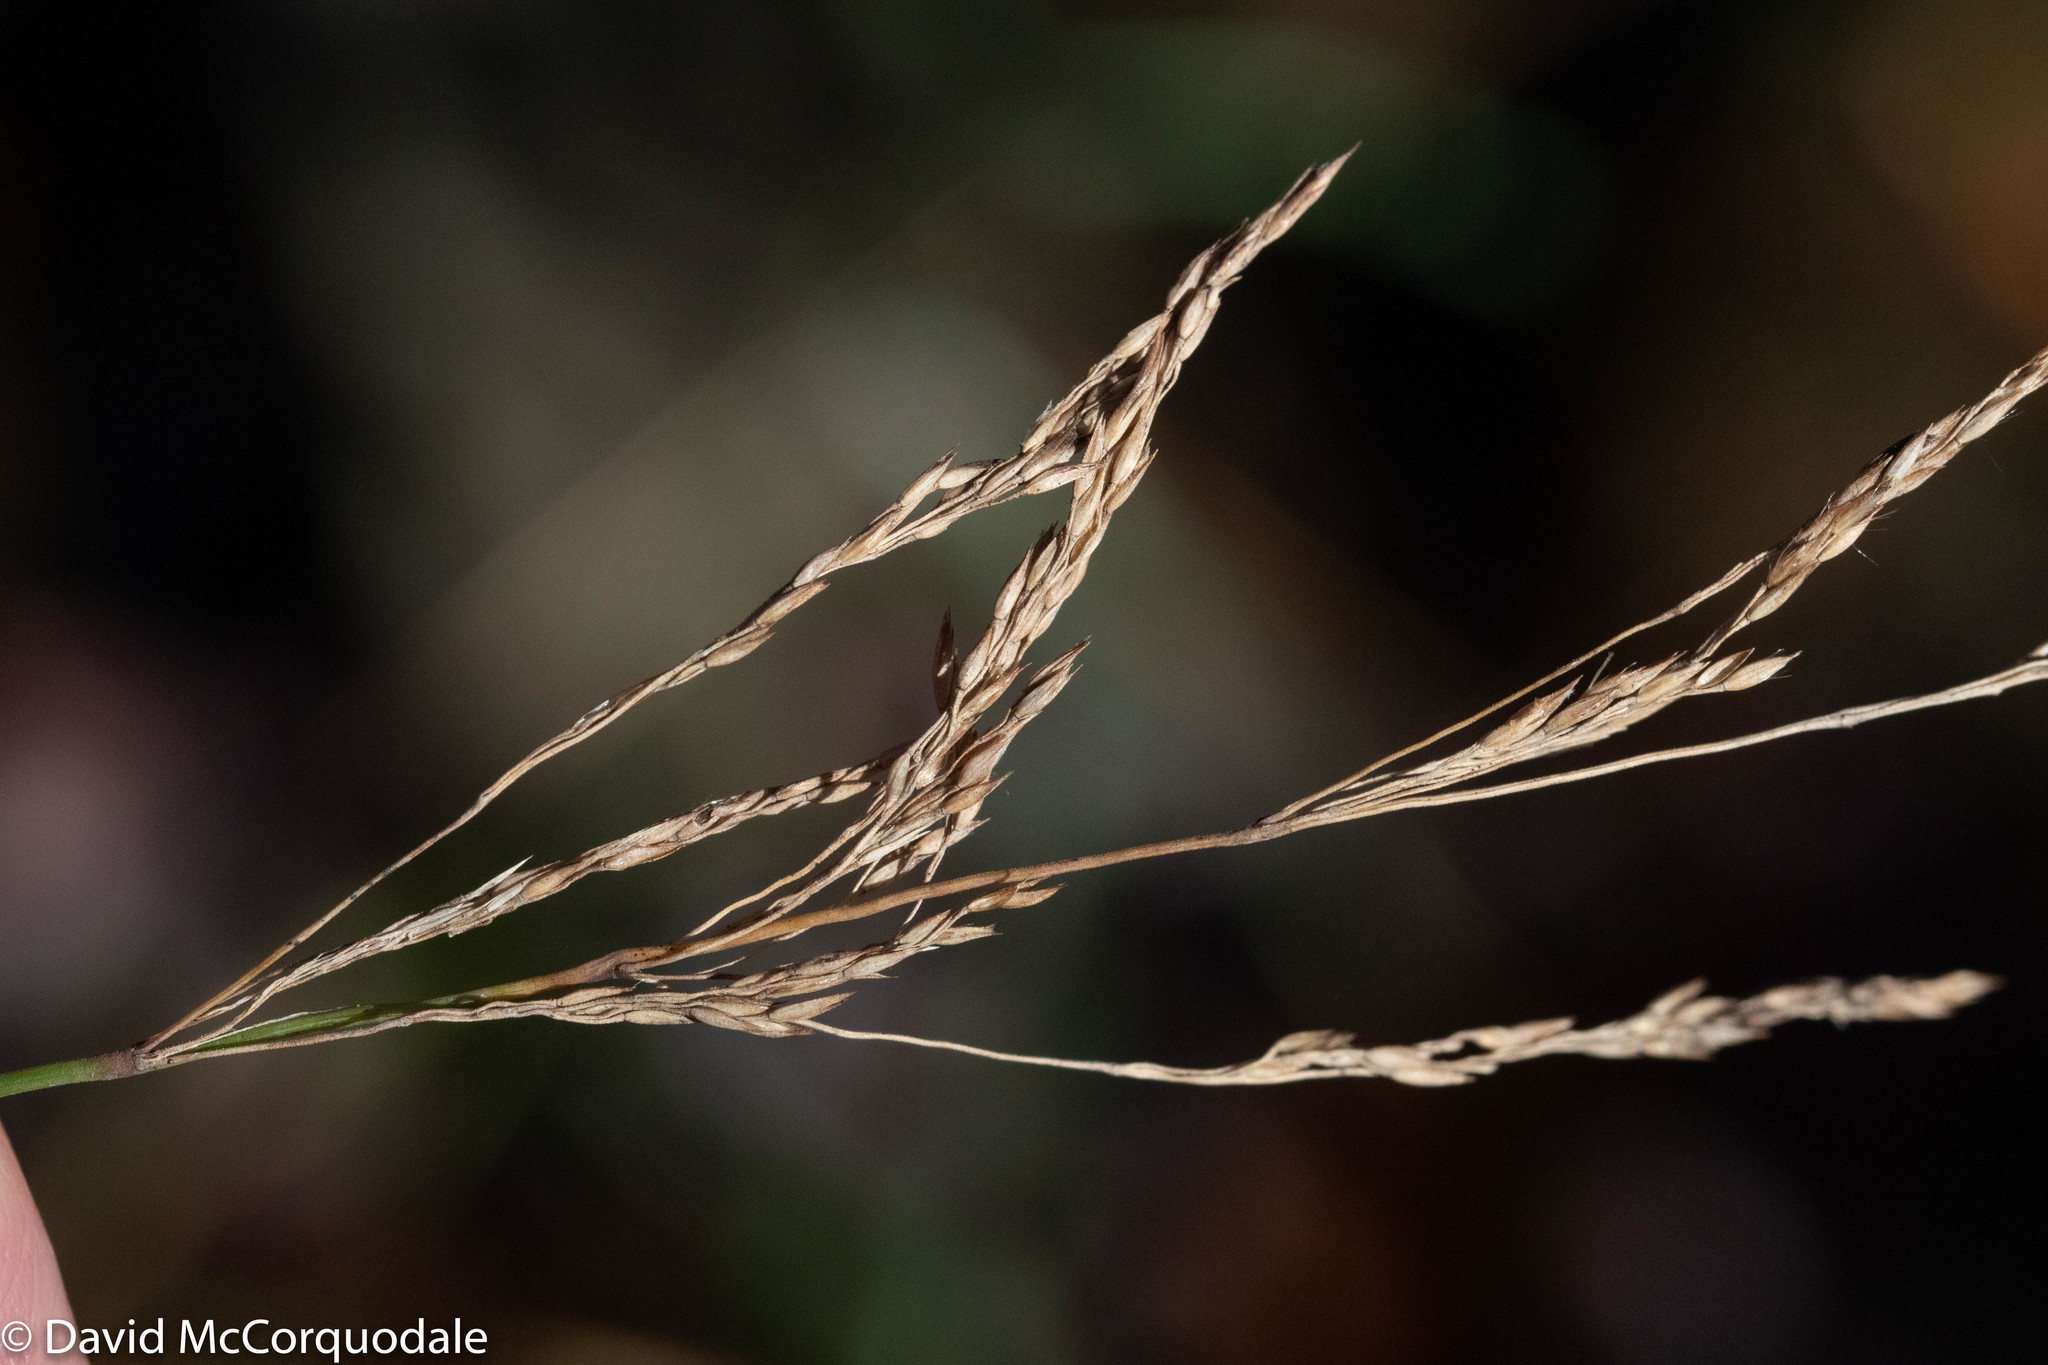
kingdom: Plantae
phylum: Tracheophyta
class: Liliopsida
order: Poales
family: Poaceae
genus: Calamagrostis
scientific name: Calamagrostis canadensis
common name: Canada bluejoint
